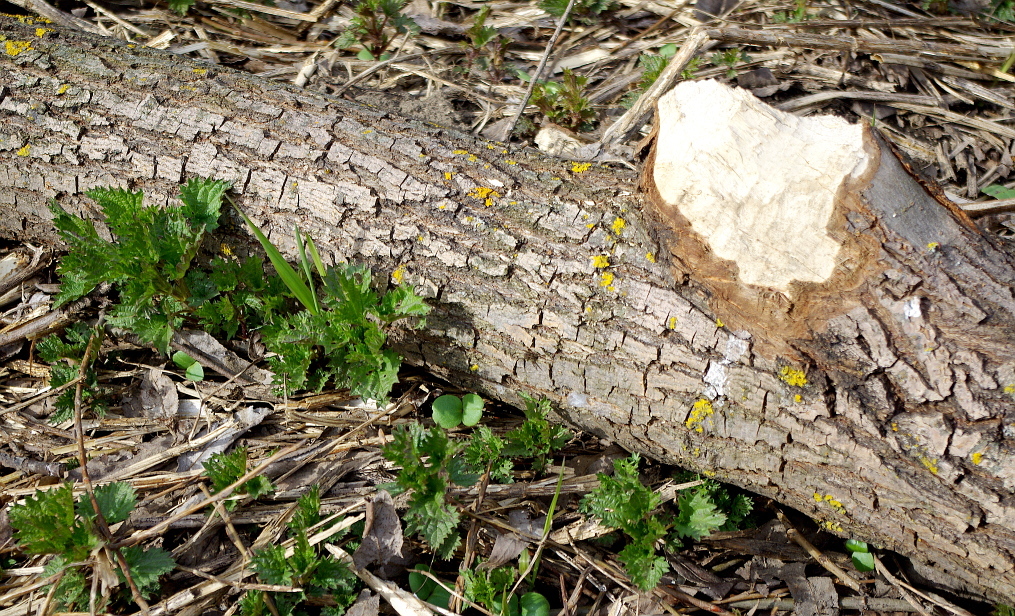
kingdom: Animalia
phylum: Chordata
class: Mammalia
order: Rodentia
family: Castoridae
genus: Castor
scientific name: Castor fiber
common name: Eurasian beaver
